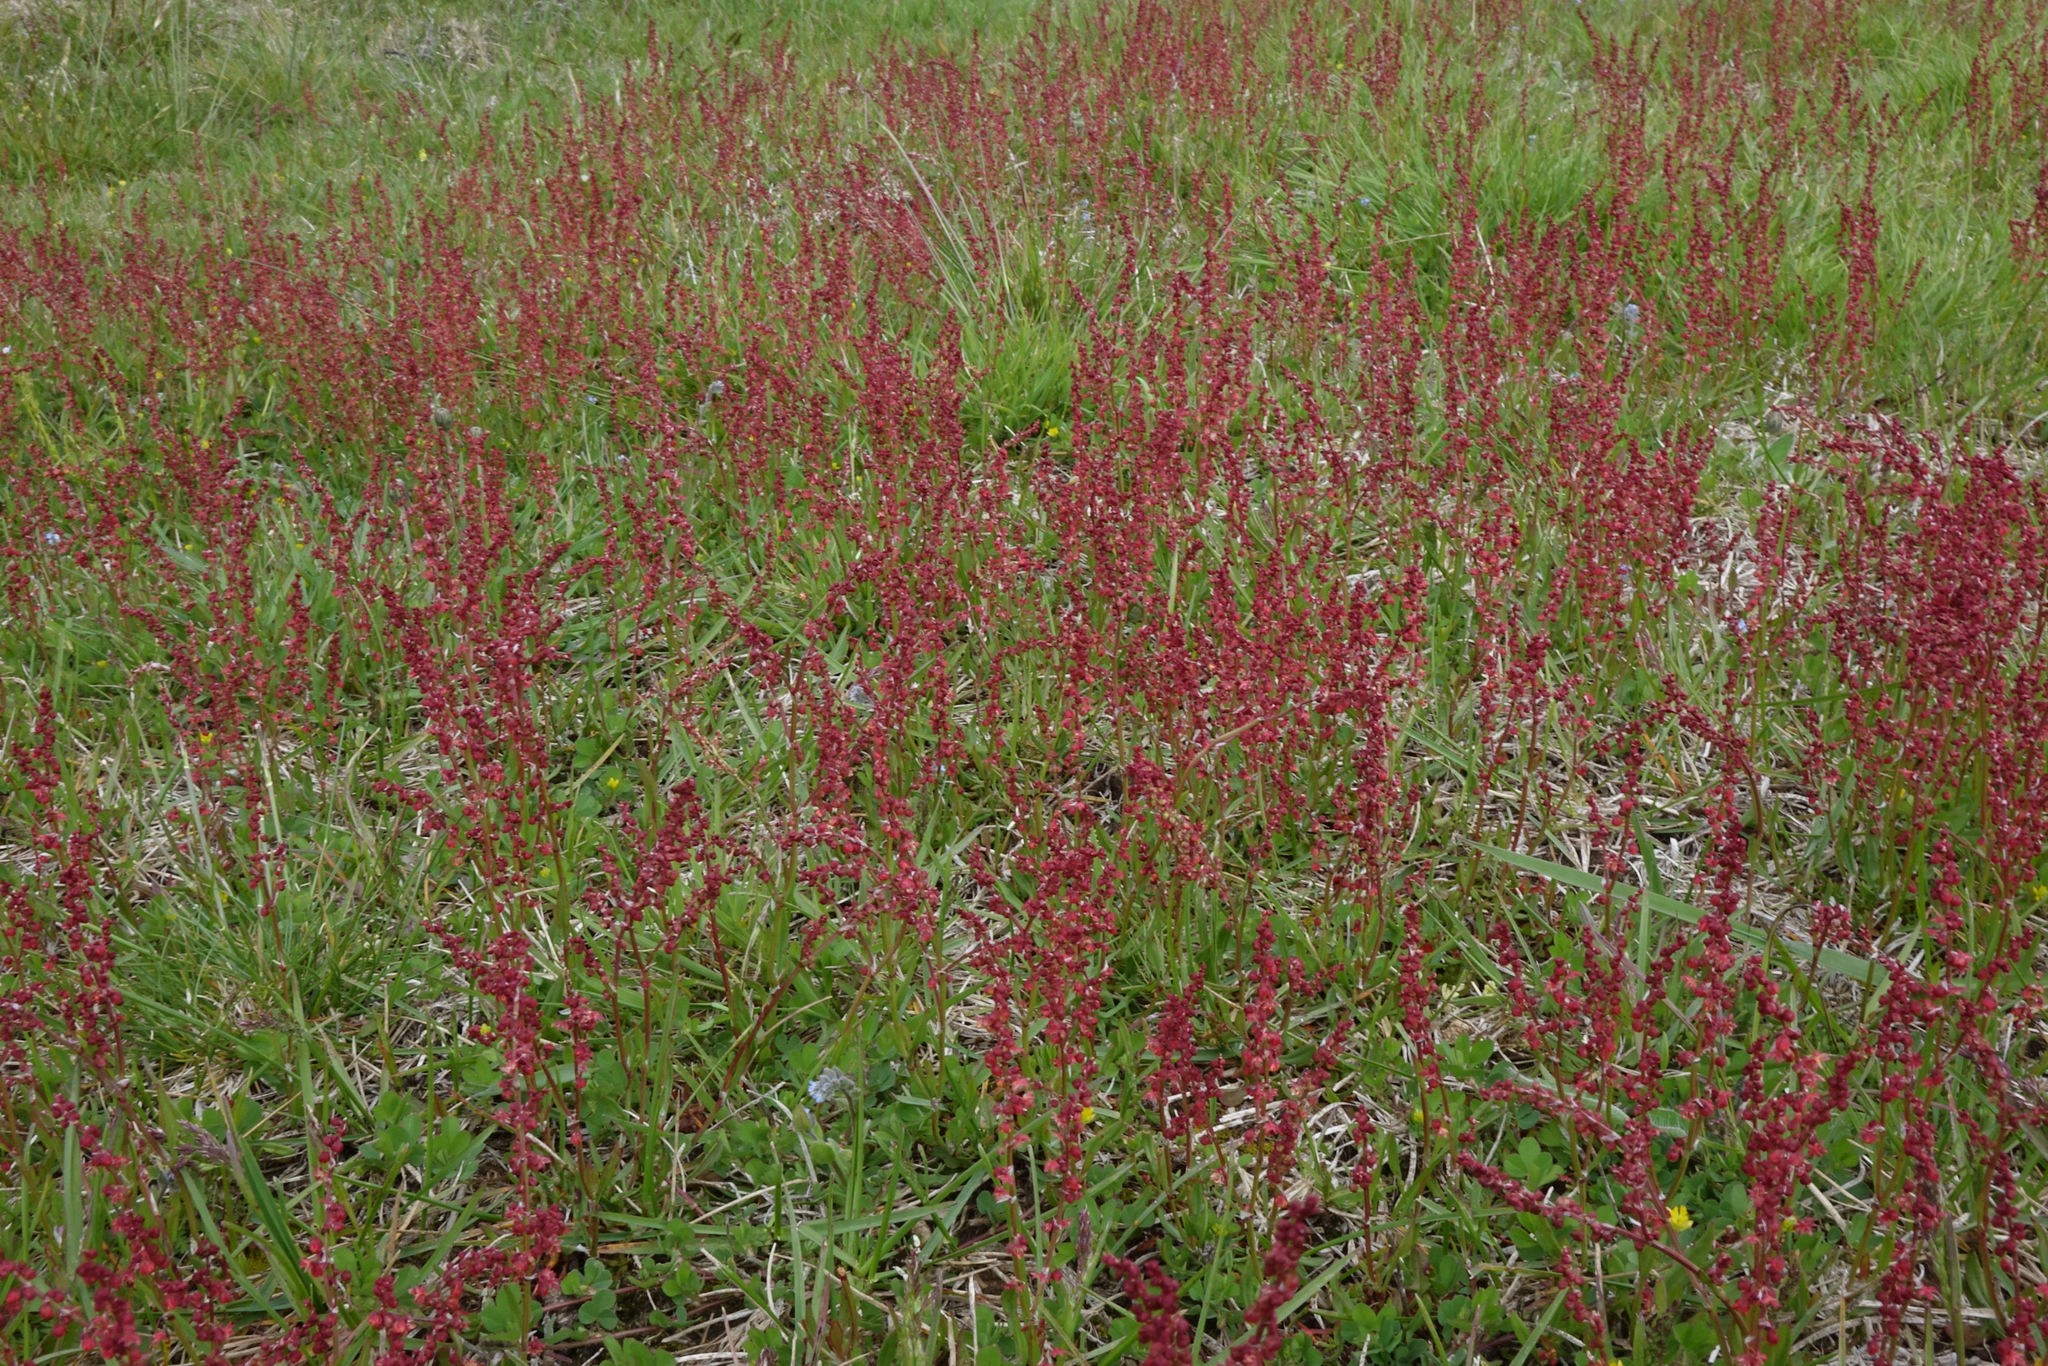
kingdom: Plantae
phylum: Tracheophyta
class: Magnoliopsida
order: Caryophyllales
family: Polygonaceae
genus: Rumex
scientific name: Rumex acetosella
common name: Common sheep sorrel
